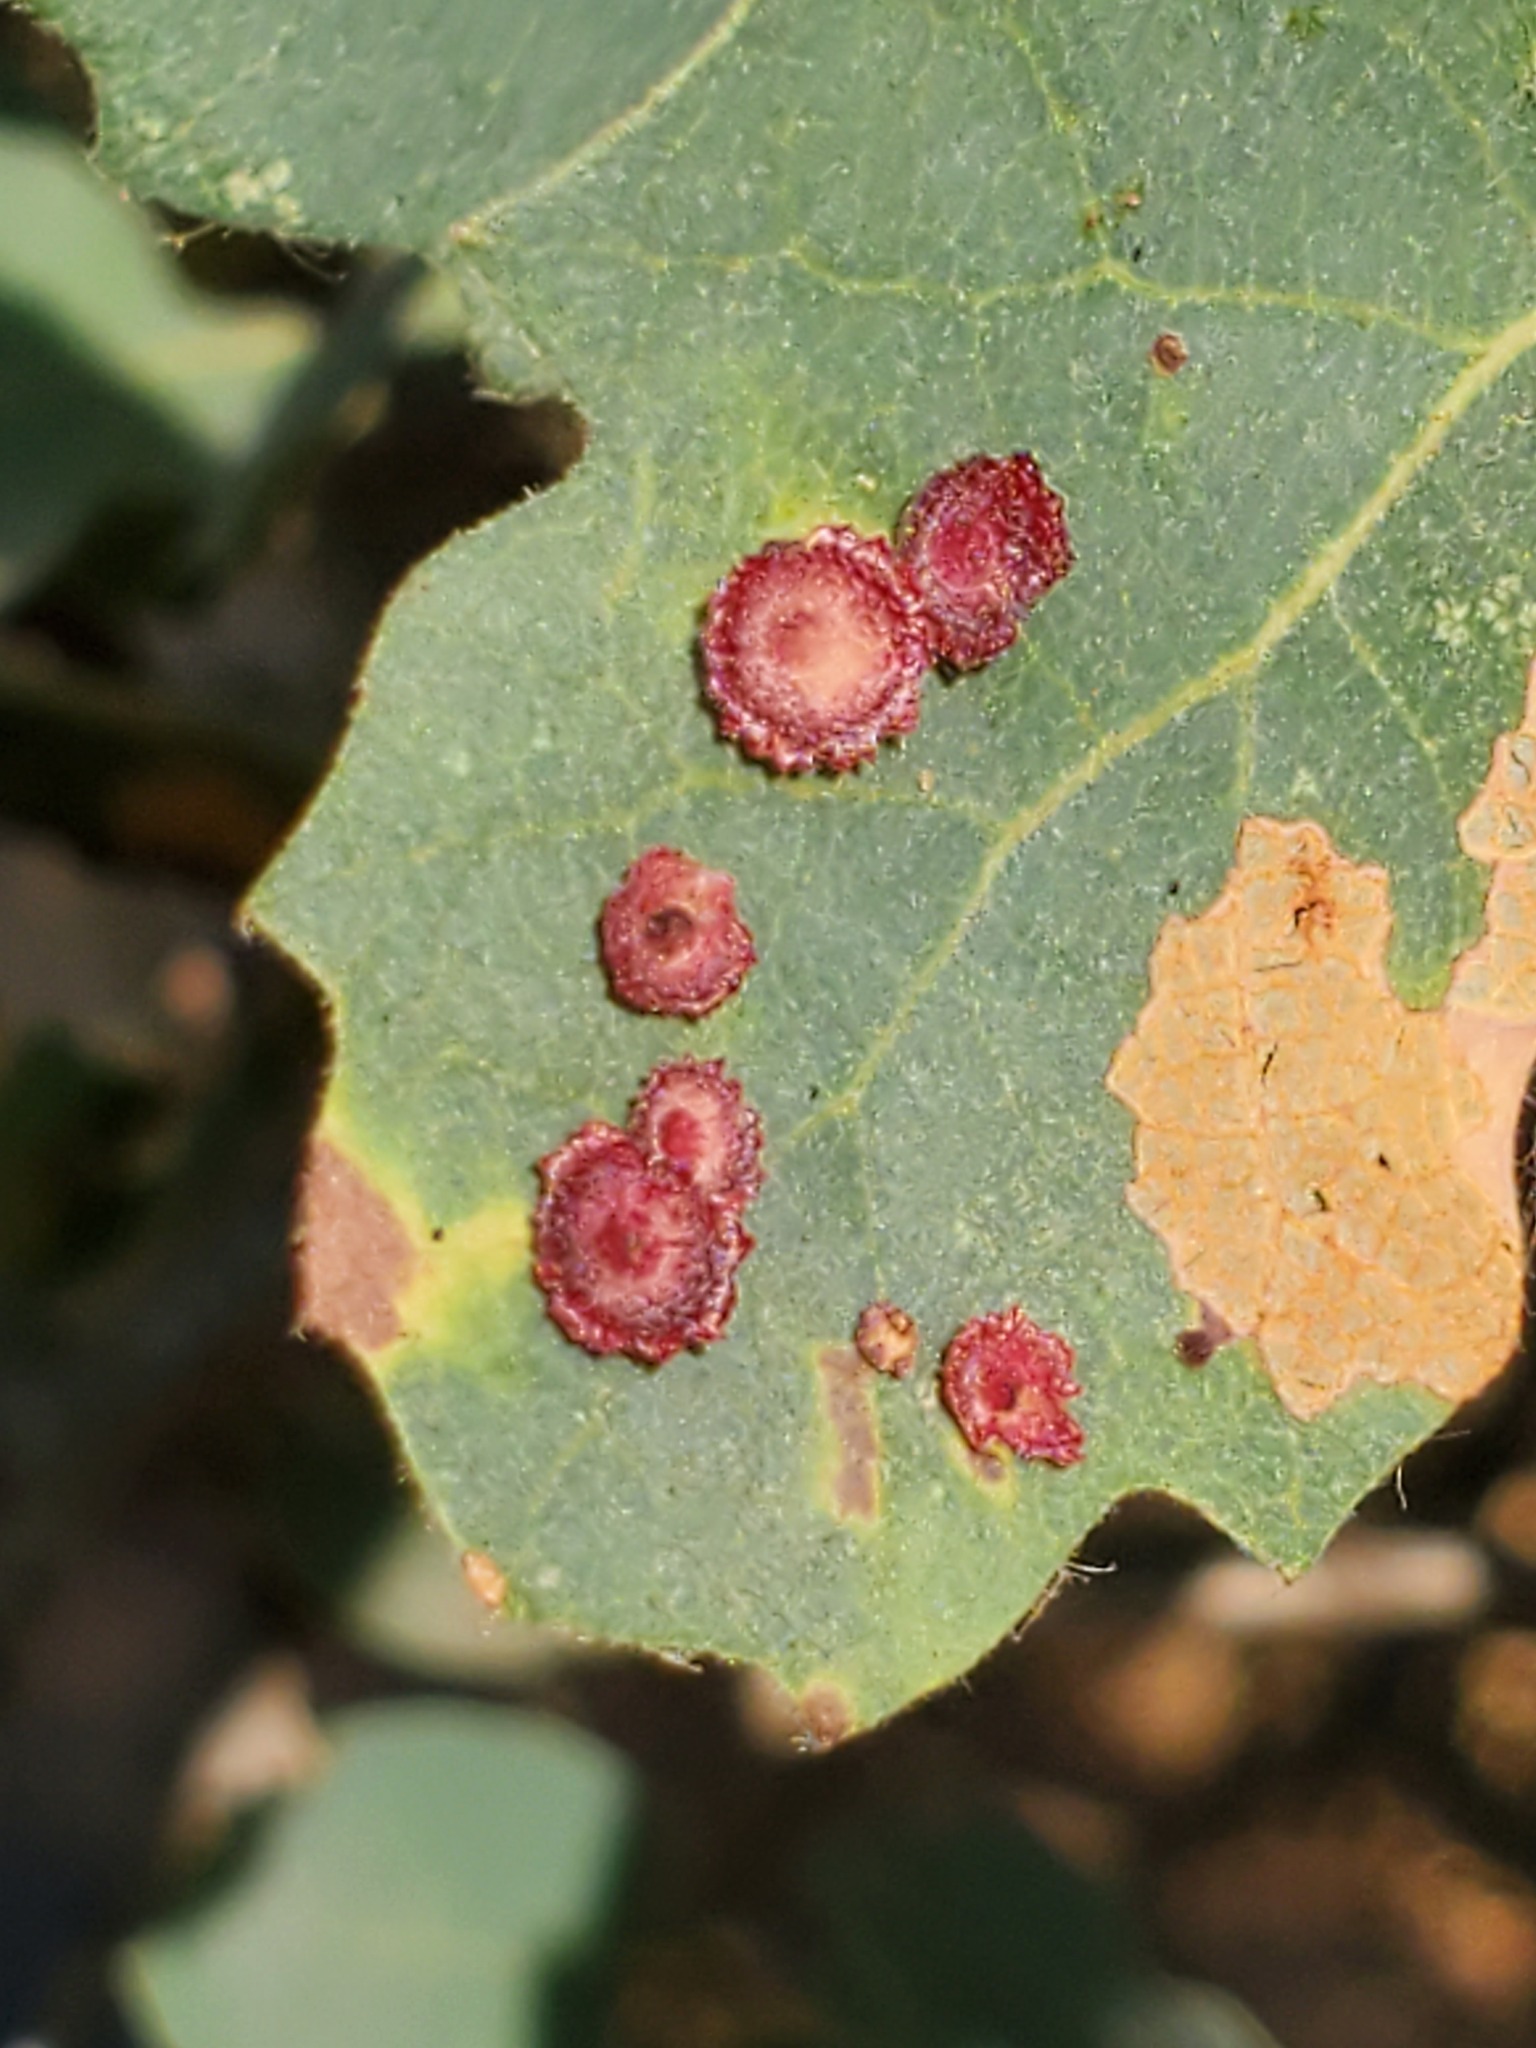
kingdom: Animalia
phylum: Arthropoda
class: Insecta
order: Hymenoptera
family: Cynipidae
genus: Andricus
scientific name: Andricus
